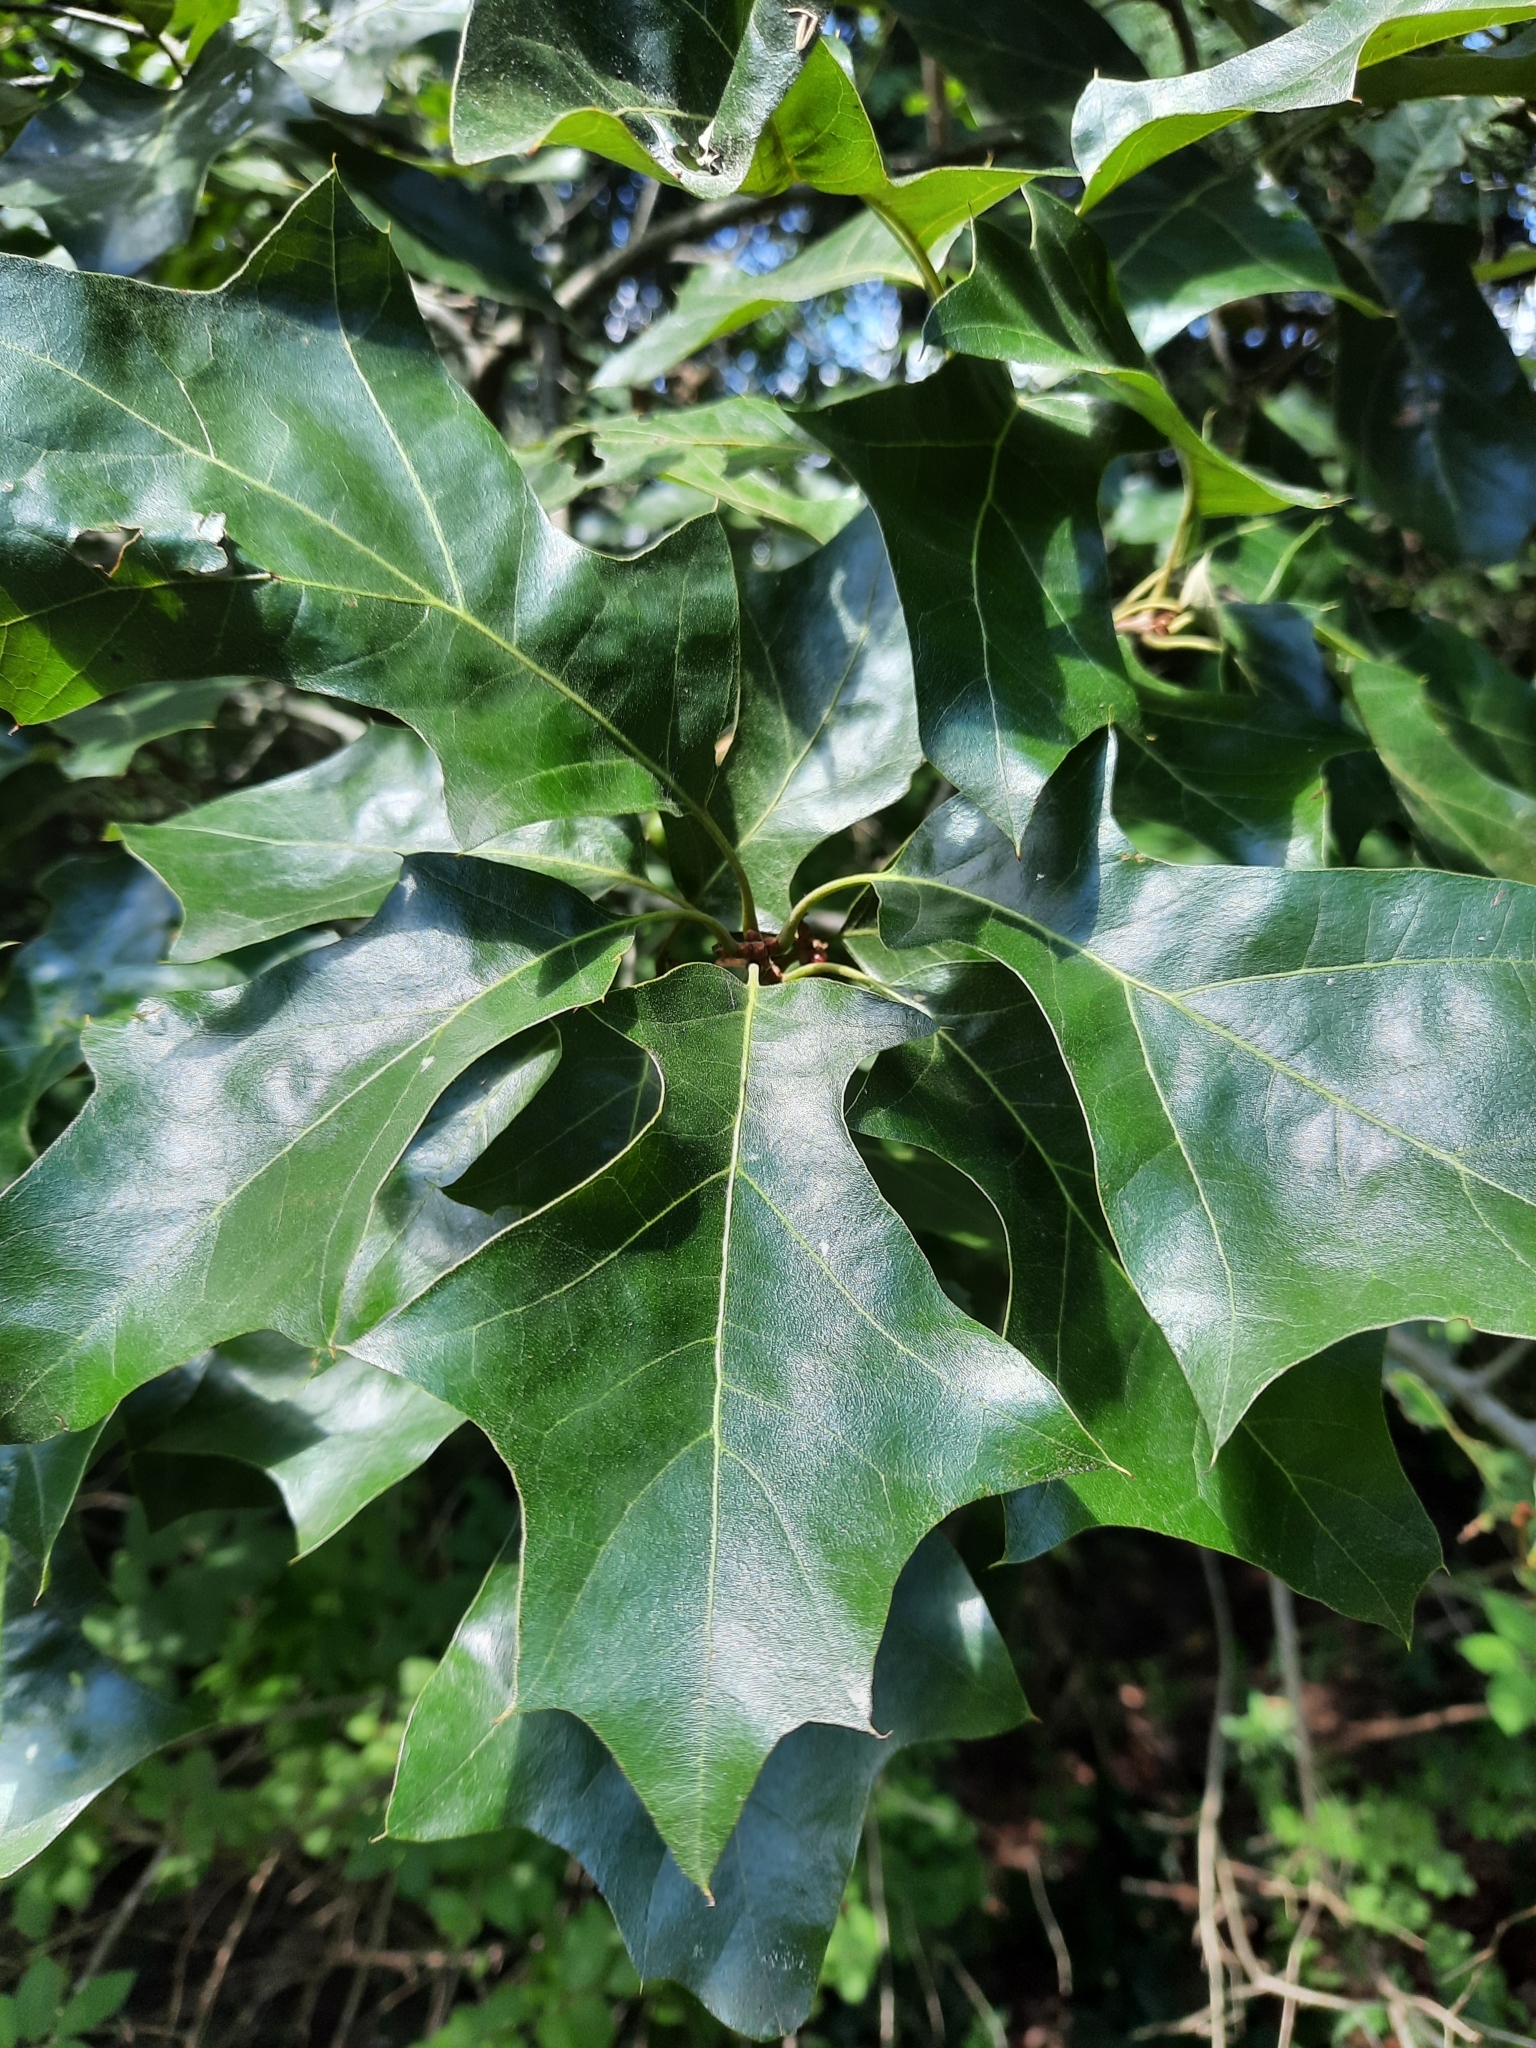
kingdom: Plantae
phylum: Tracheophyta
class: Magnoliopsida
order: Fagales
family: Fagaceae
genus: Quercus
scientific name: Quercus ilicifolia
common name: Bear oak
